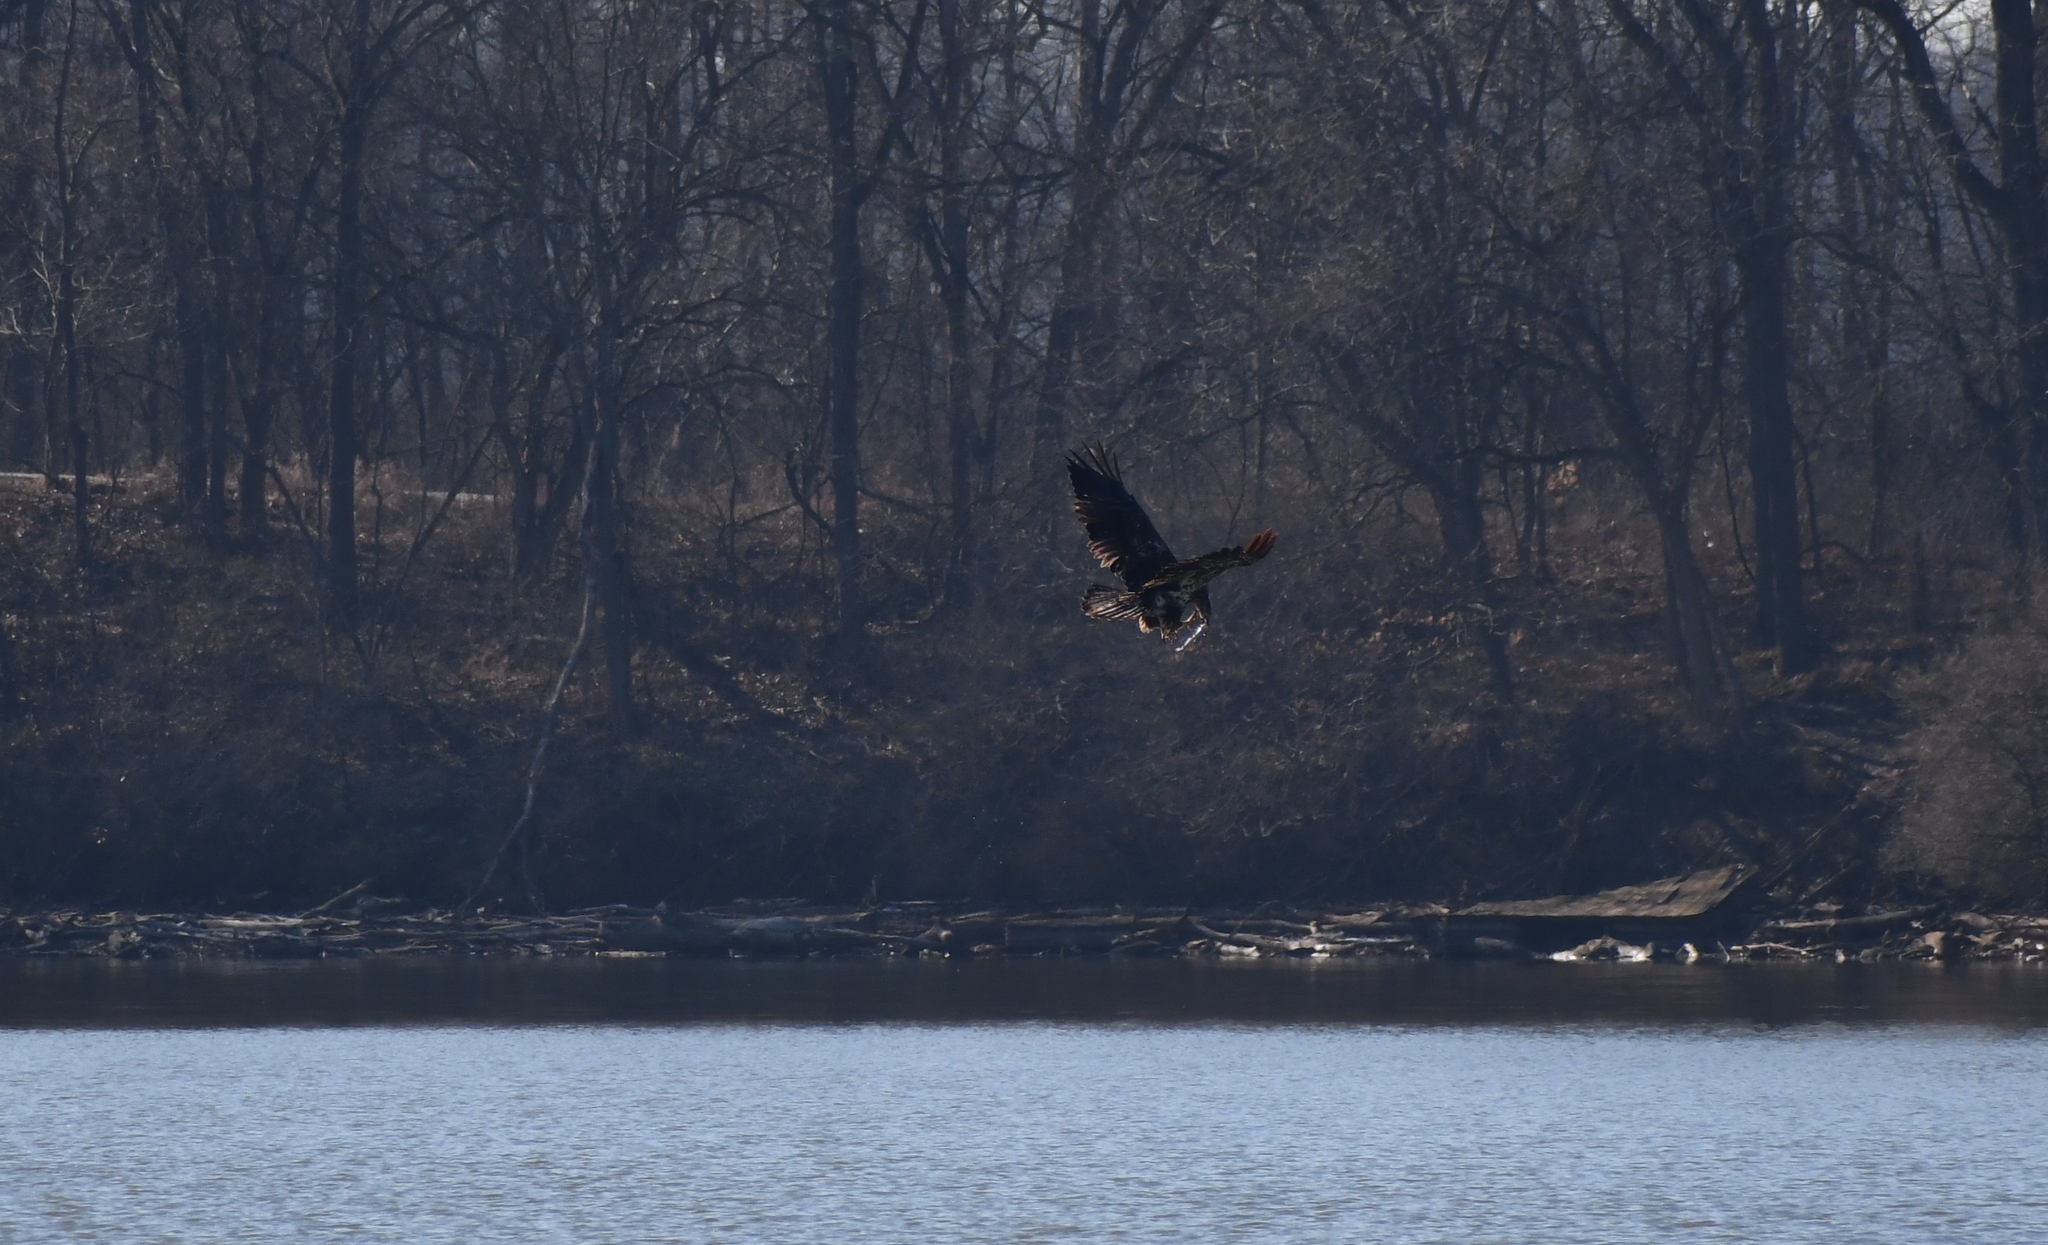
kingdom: Animalia
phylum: Chordata
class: Aves
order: Accipitriformes
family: Accipitridae
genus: Haliaeetus
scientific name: Haliaeetus leucocephalus
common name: Bald eagle
